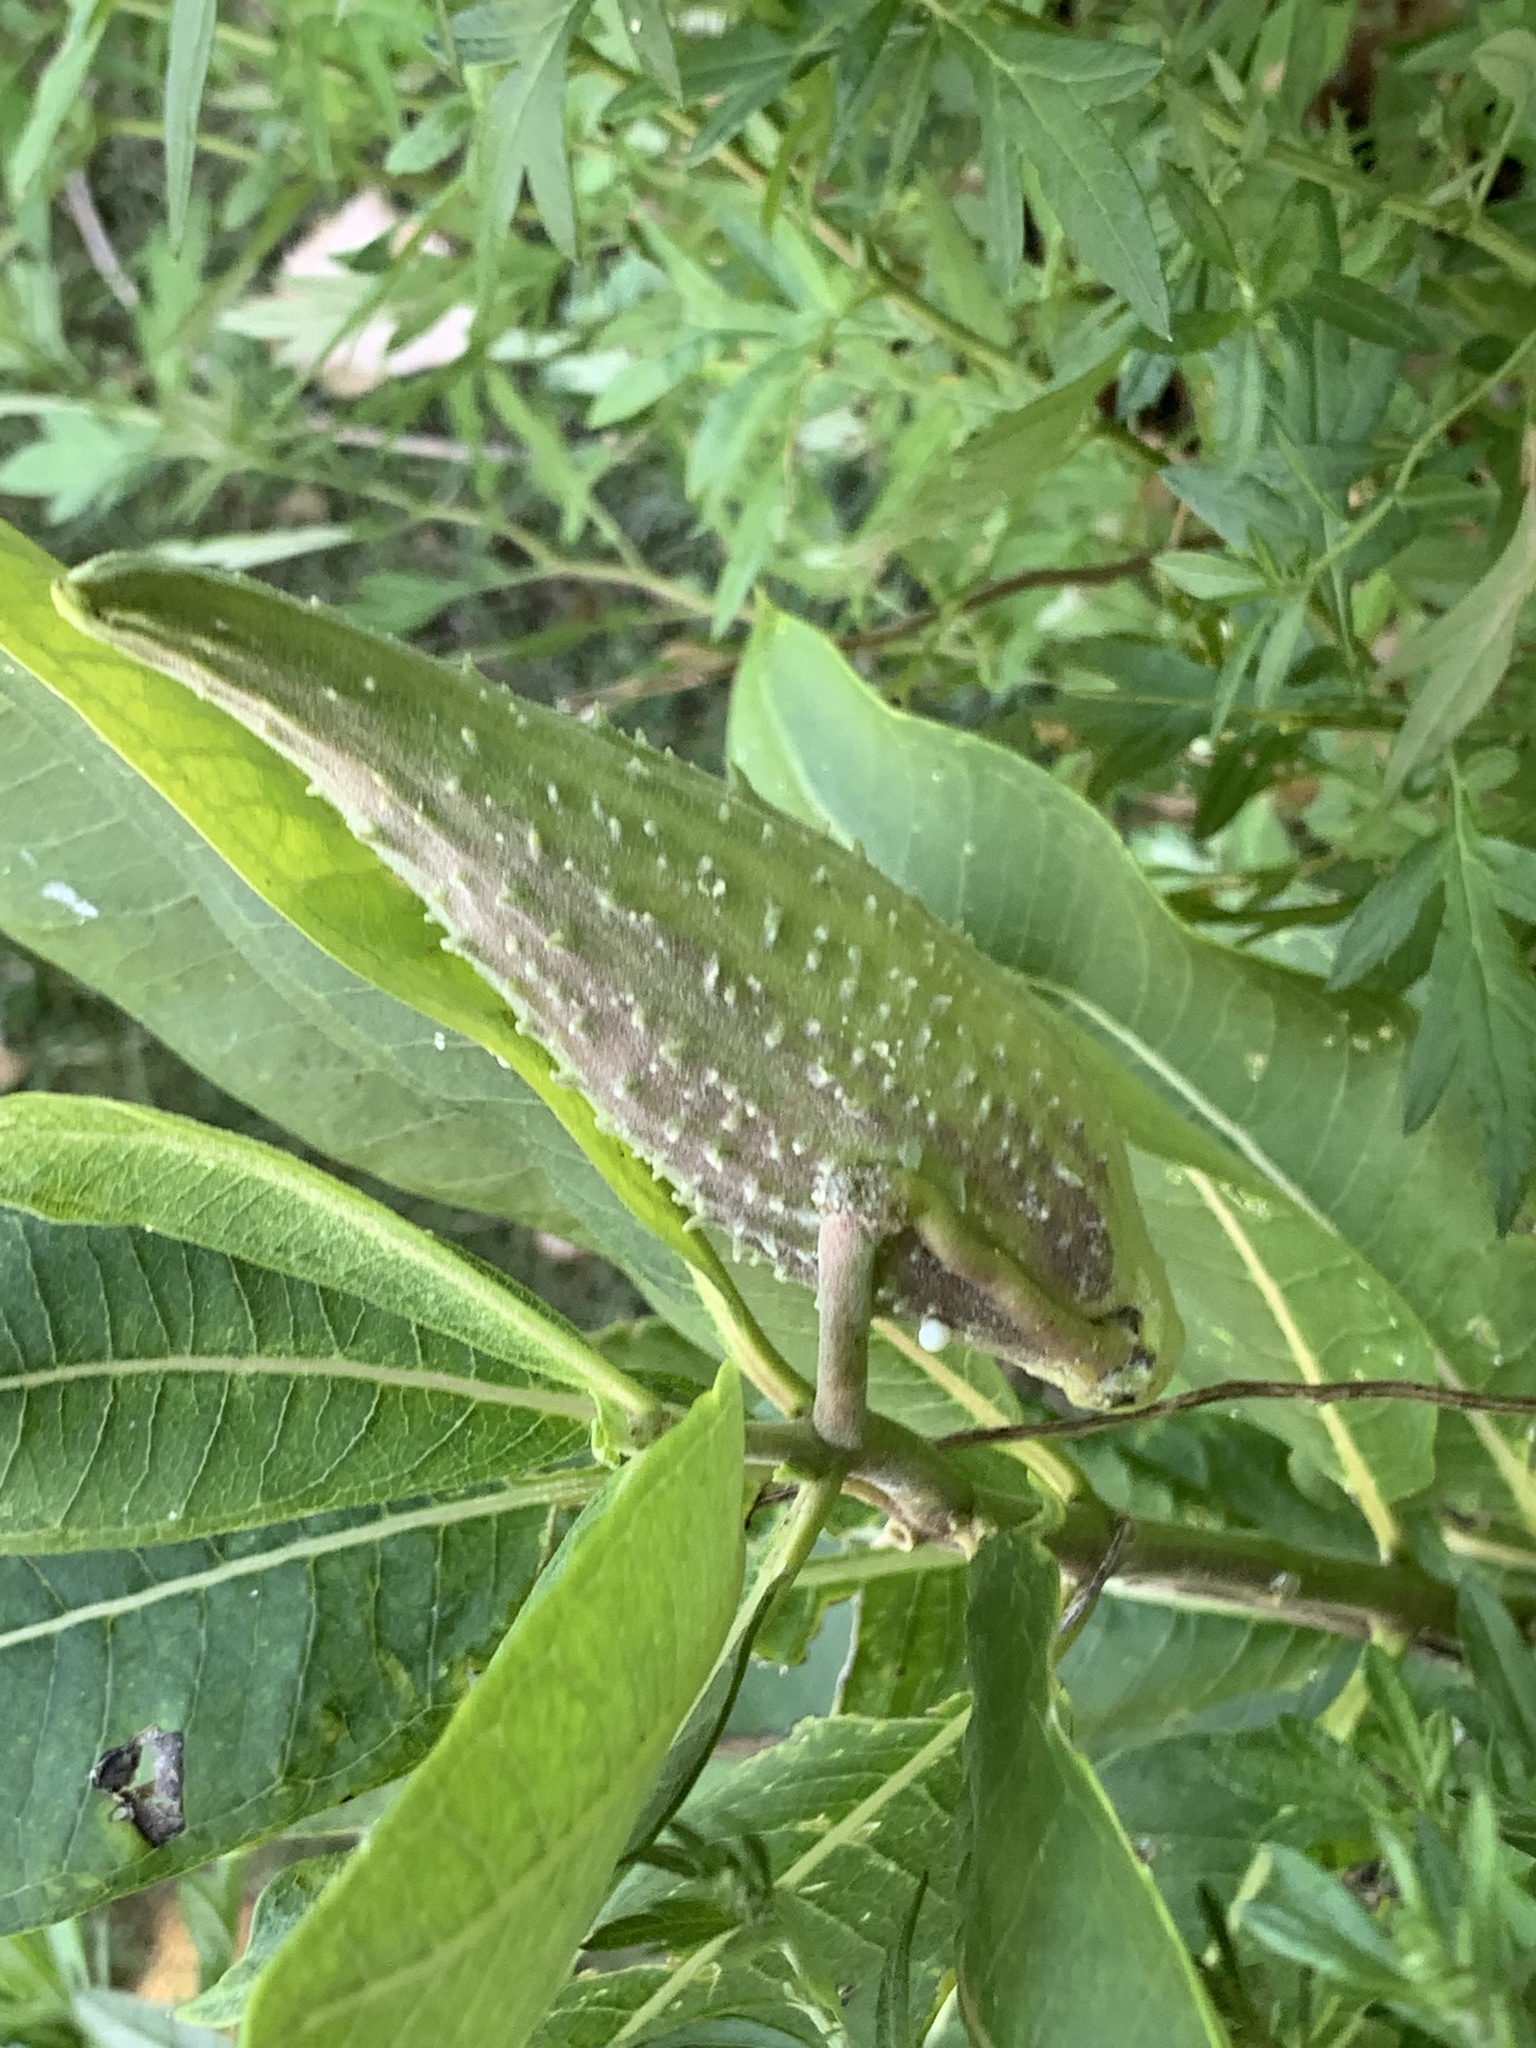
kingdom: Plantae
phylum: Tracheophyta
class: Magnoliopsida
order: Gentianales
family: Apocynaceae
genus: Asclepias
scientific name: Asclepias syriaca
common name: Common milkweed
